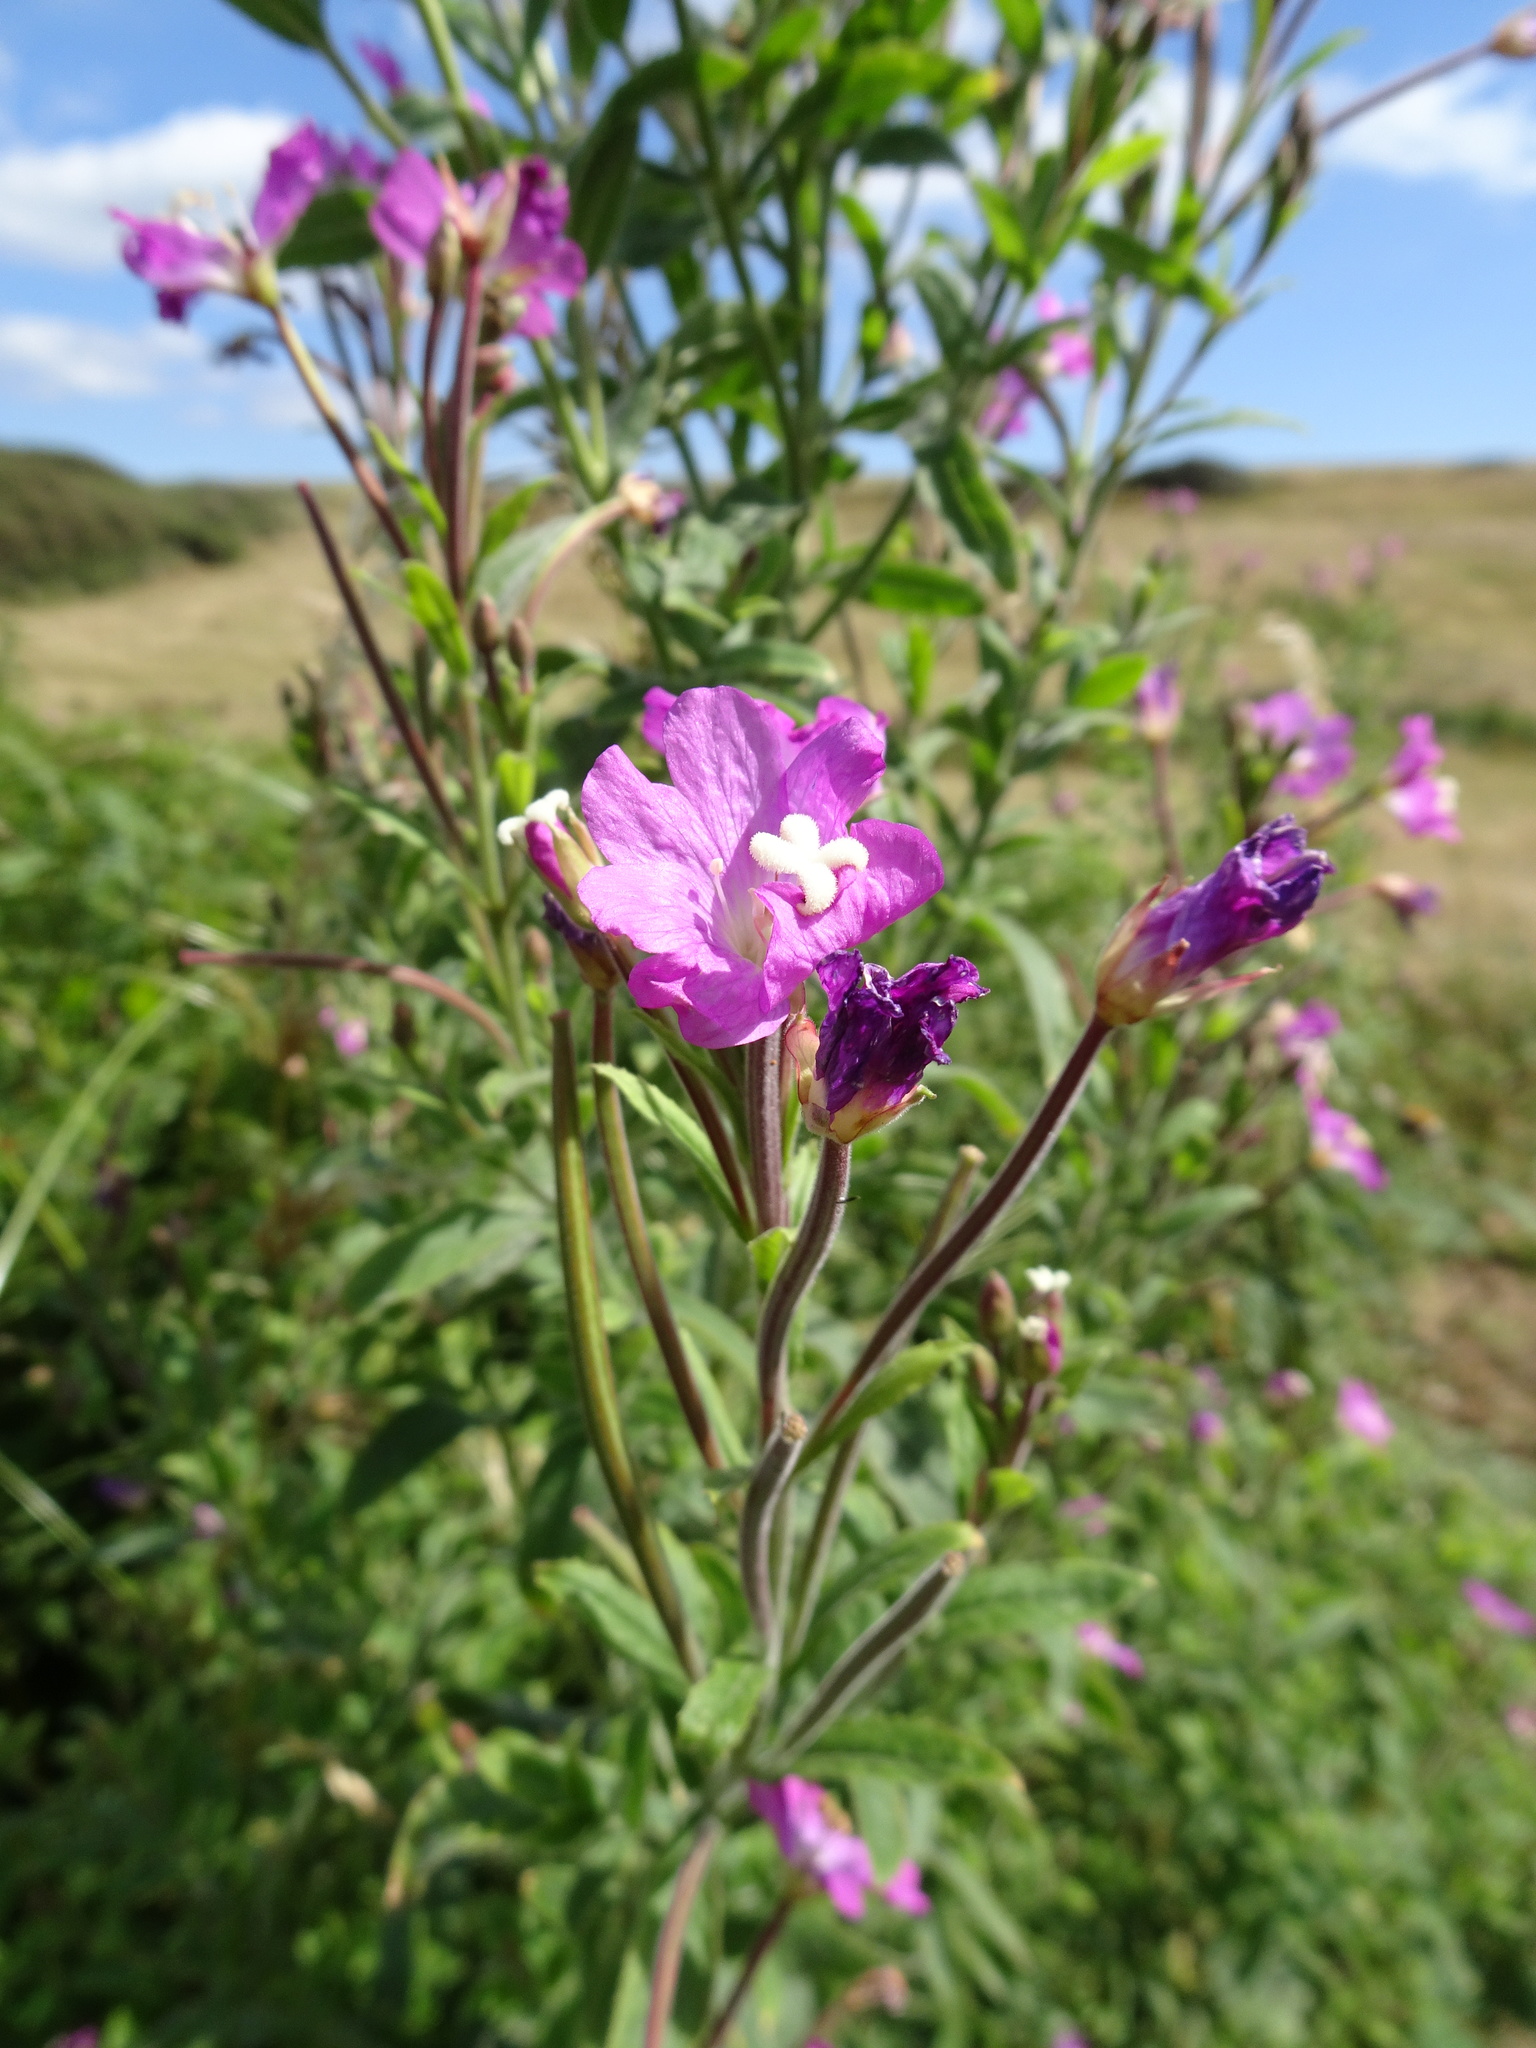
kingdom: Plantae
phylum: Tracheophyta
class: Magnoliopsida
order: Myrtales
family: Onagraceae
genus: Epilobium
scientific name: Epilobium hirsutum
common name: Great willowherb
